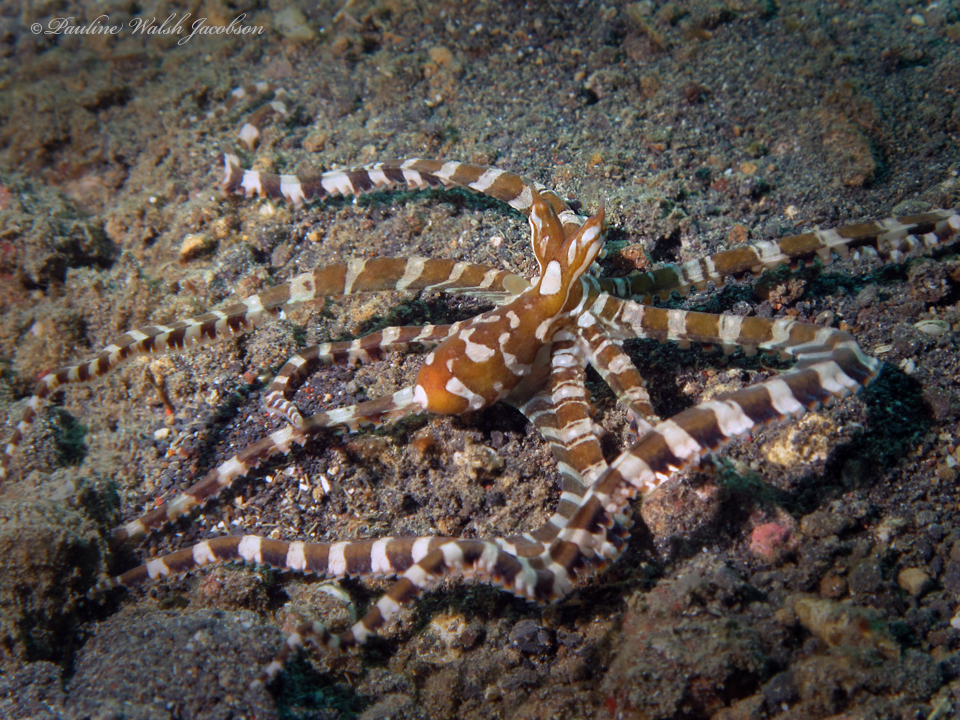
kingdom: Animalia
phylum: Mollusca
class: Cephalopoda
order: Octopoda
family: Octopodidae
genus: Wunderpus
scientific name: Wunderpus photogenicus
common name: Wunderpus
